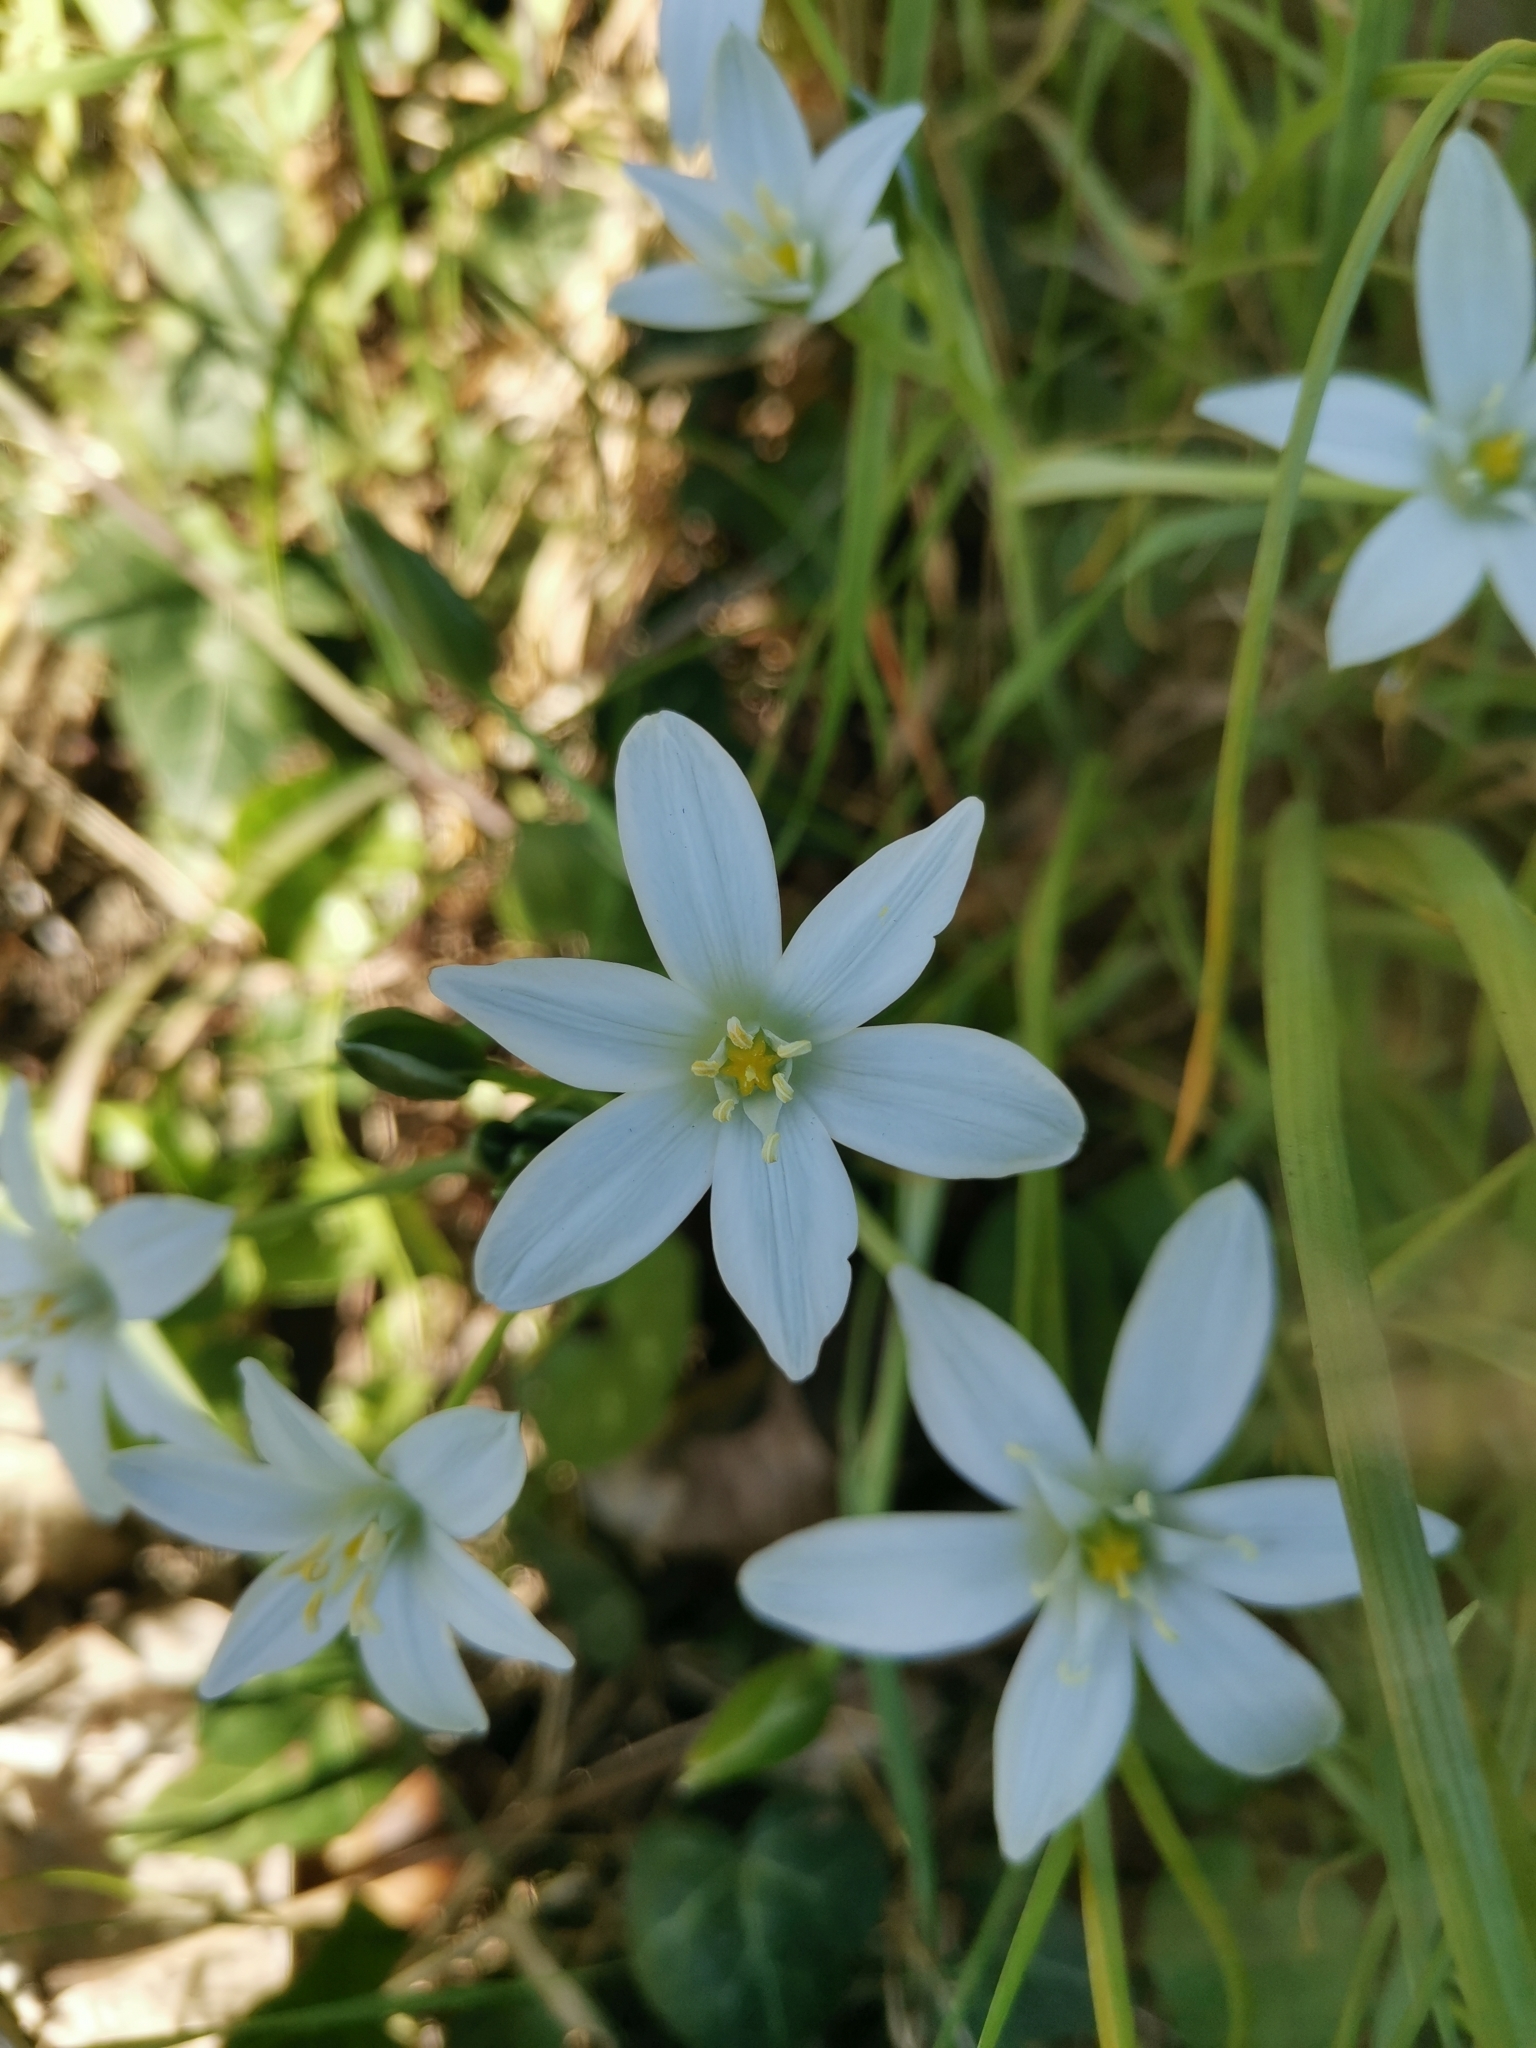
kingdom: Plantae
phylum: Tracheophyta
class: Liliopsida
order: Asparagales
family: Asparagaceae
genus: Ornithogalum
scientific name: Ornithogalum umbellatum
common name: Garden star-of-bethlehem
